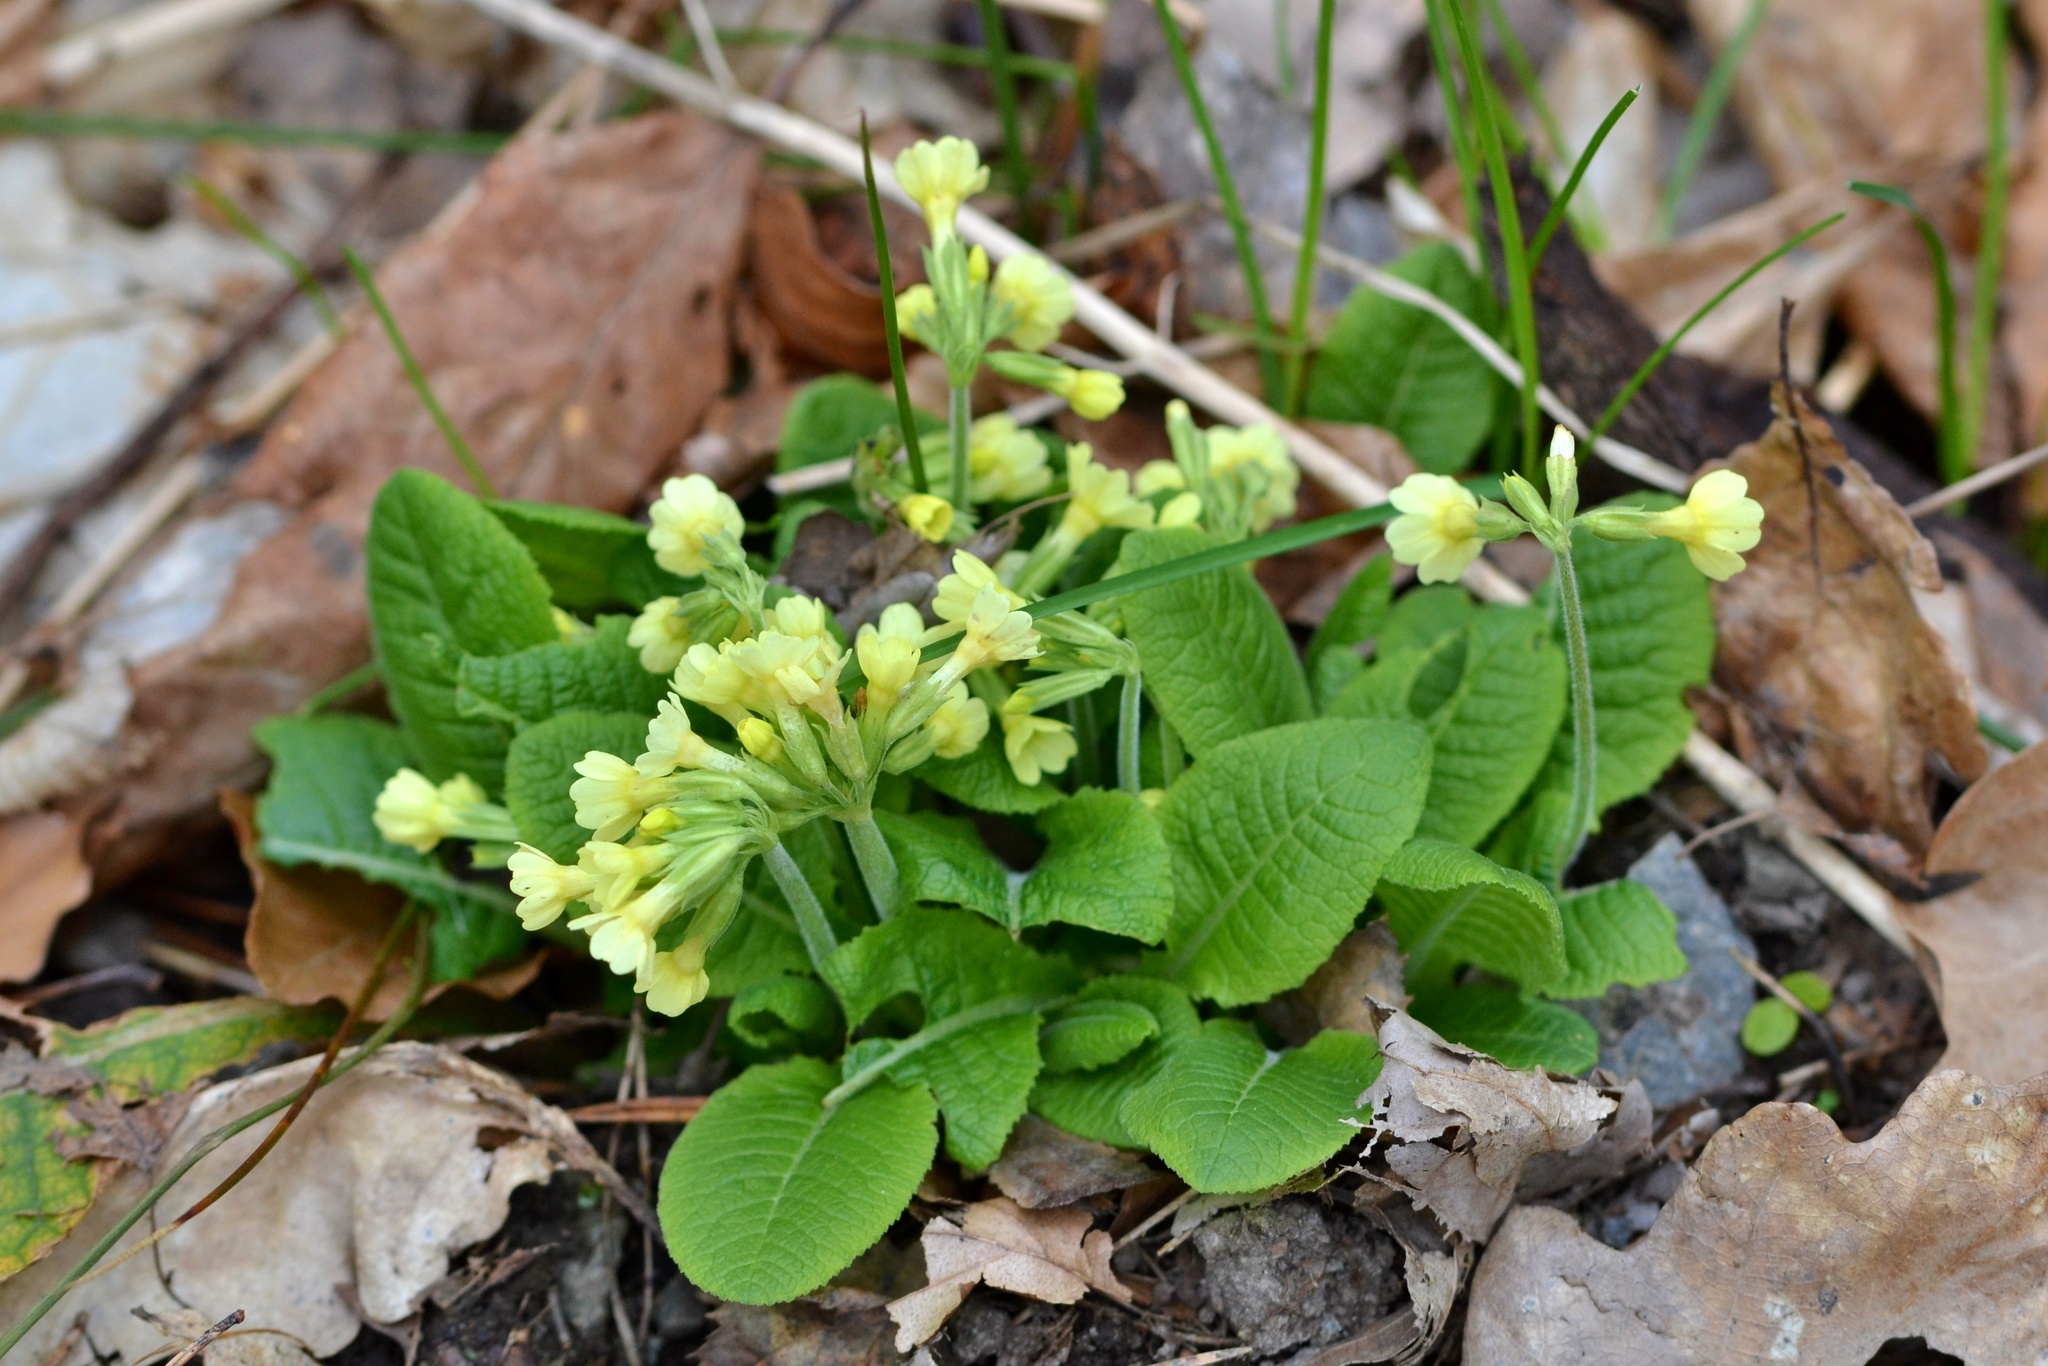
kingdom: Plantae
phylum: Tracheophyta
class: Magnoliopsida
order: Ericales
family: Primulaceae
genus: Primula
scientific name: Primula elatior
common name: Oxlip
